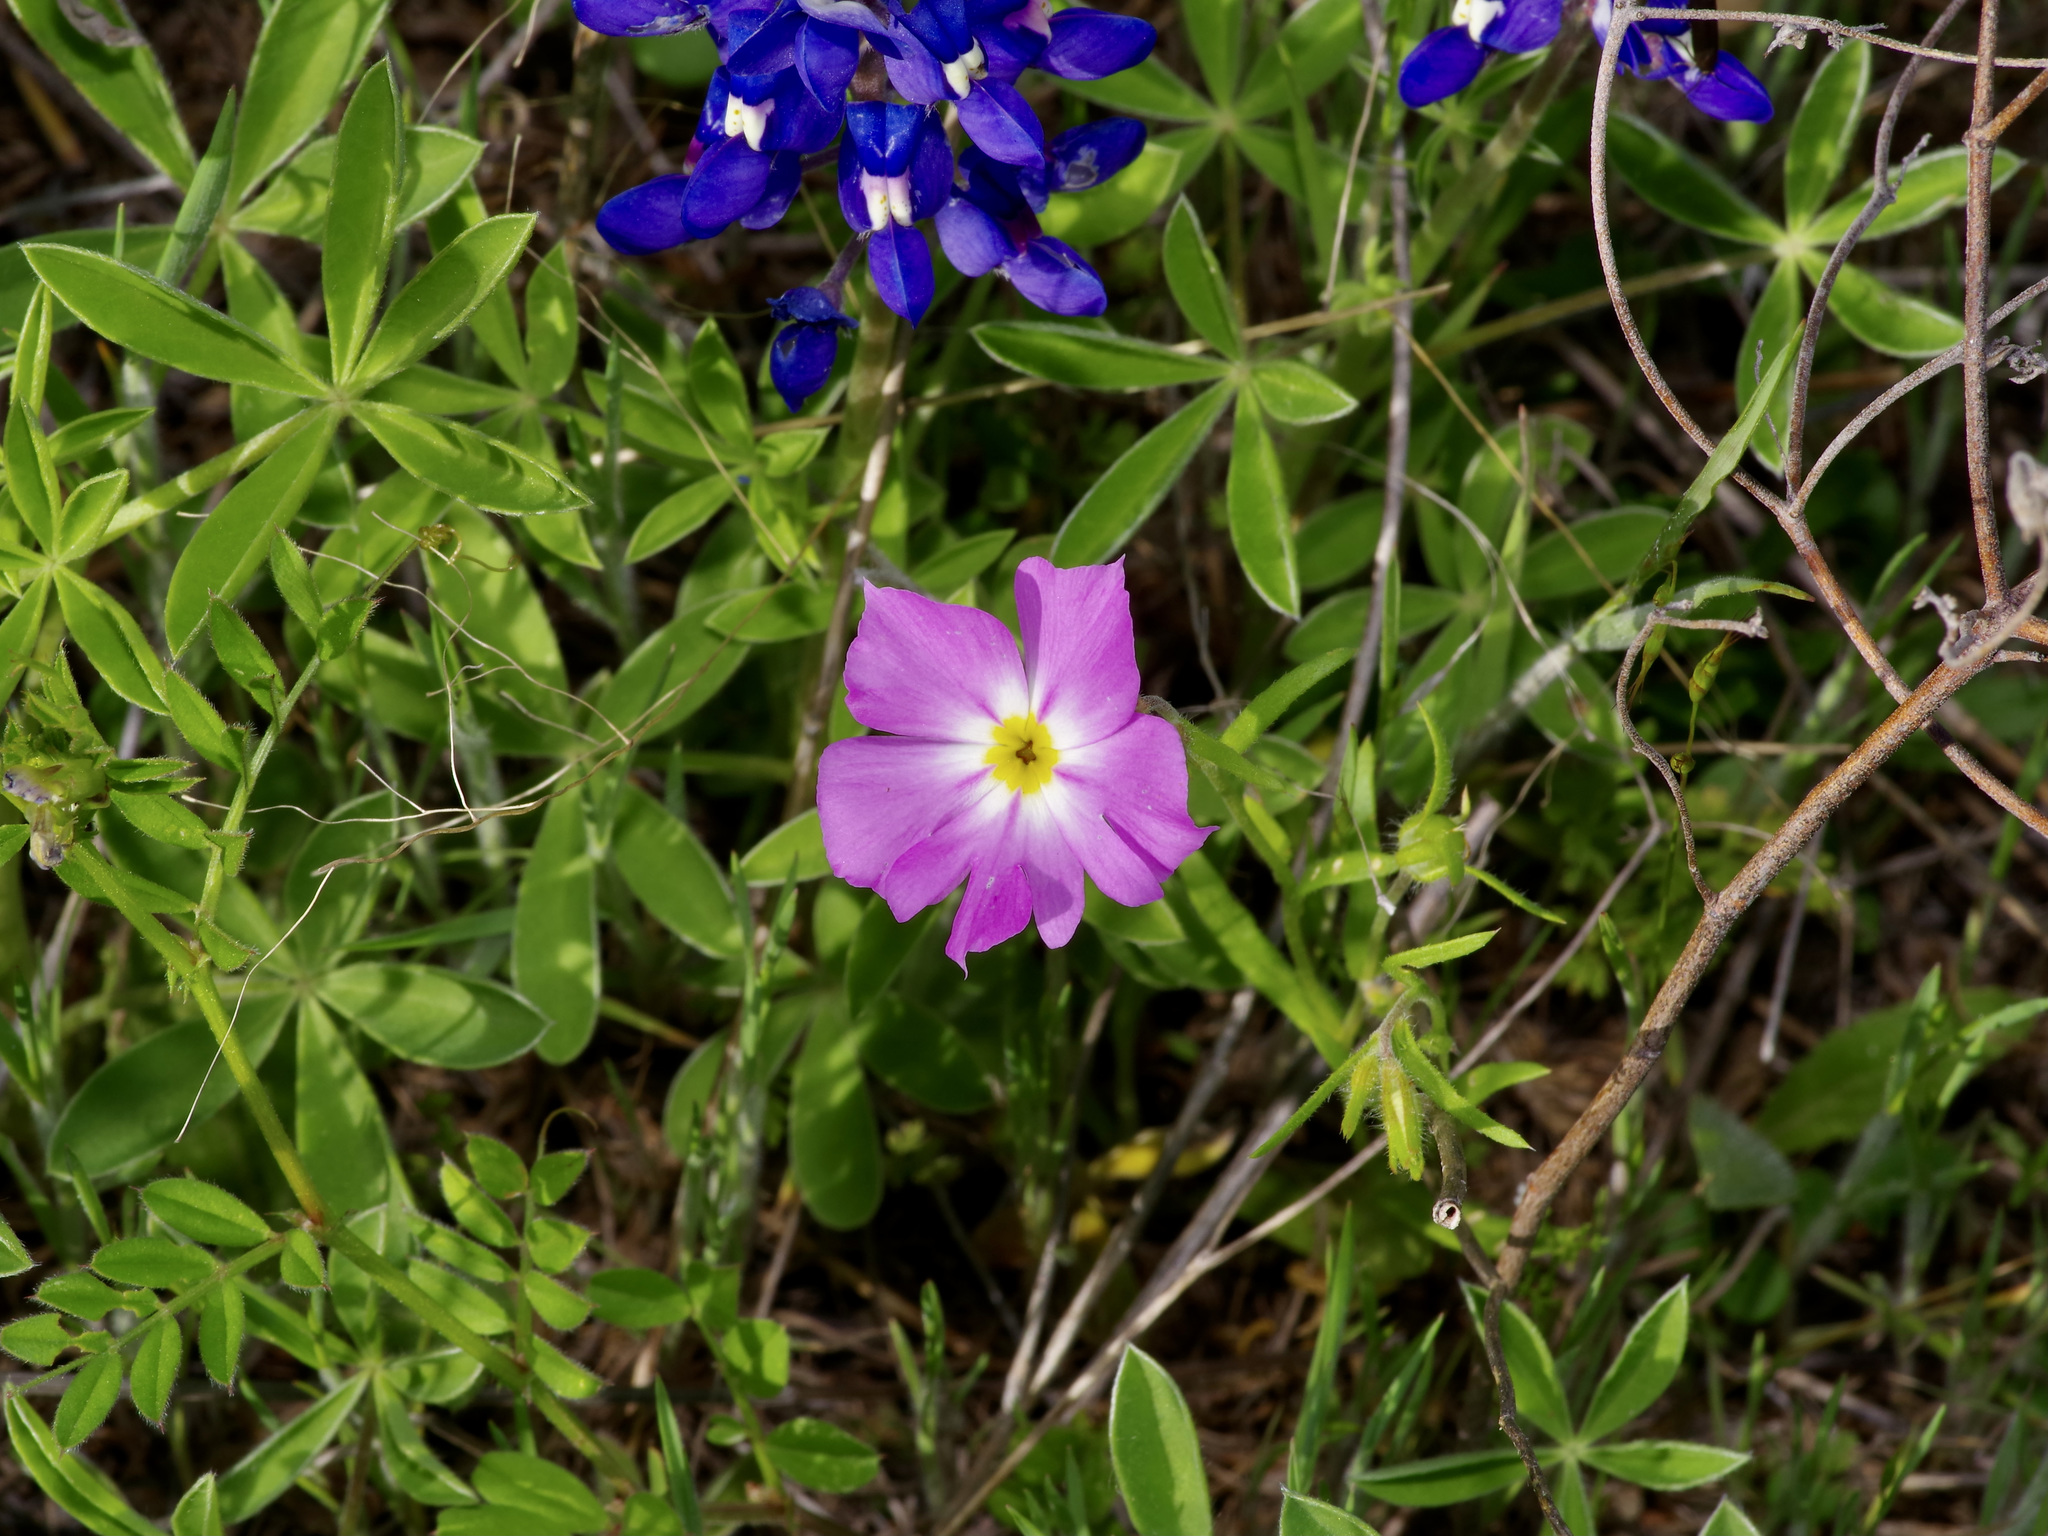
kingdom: Plantae
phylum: Tracheophyta
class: Magnoliopsida
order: Ericales
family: Polemoniaceae
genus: Phlox
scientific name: Phlox roemeriana
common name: Roemer's phlox
